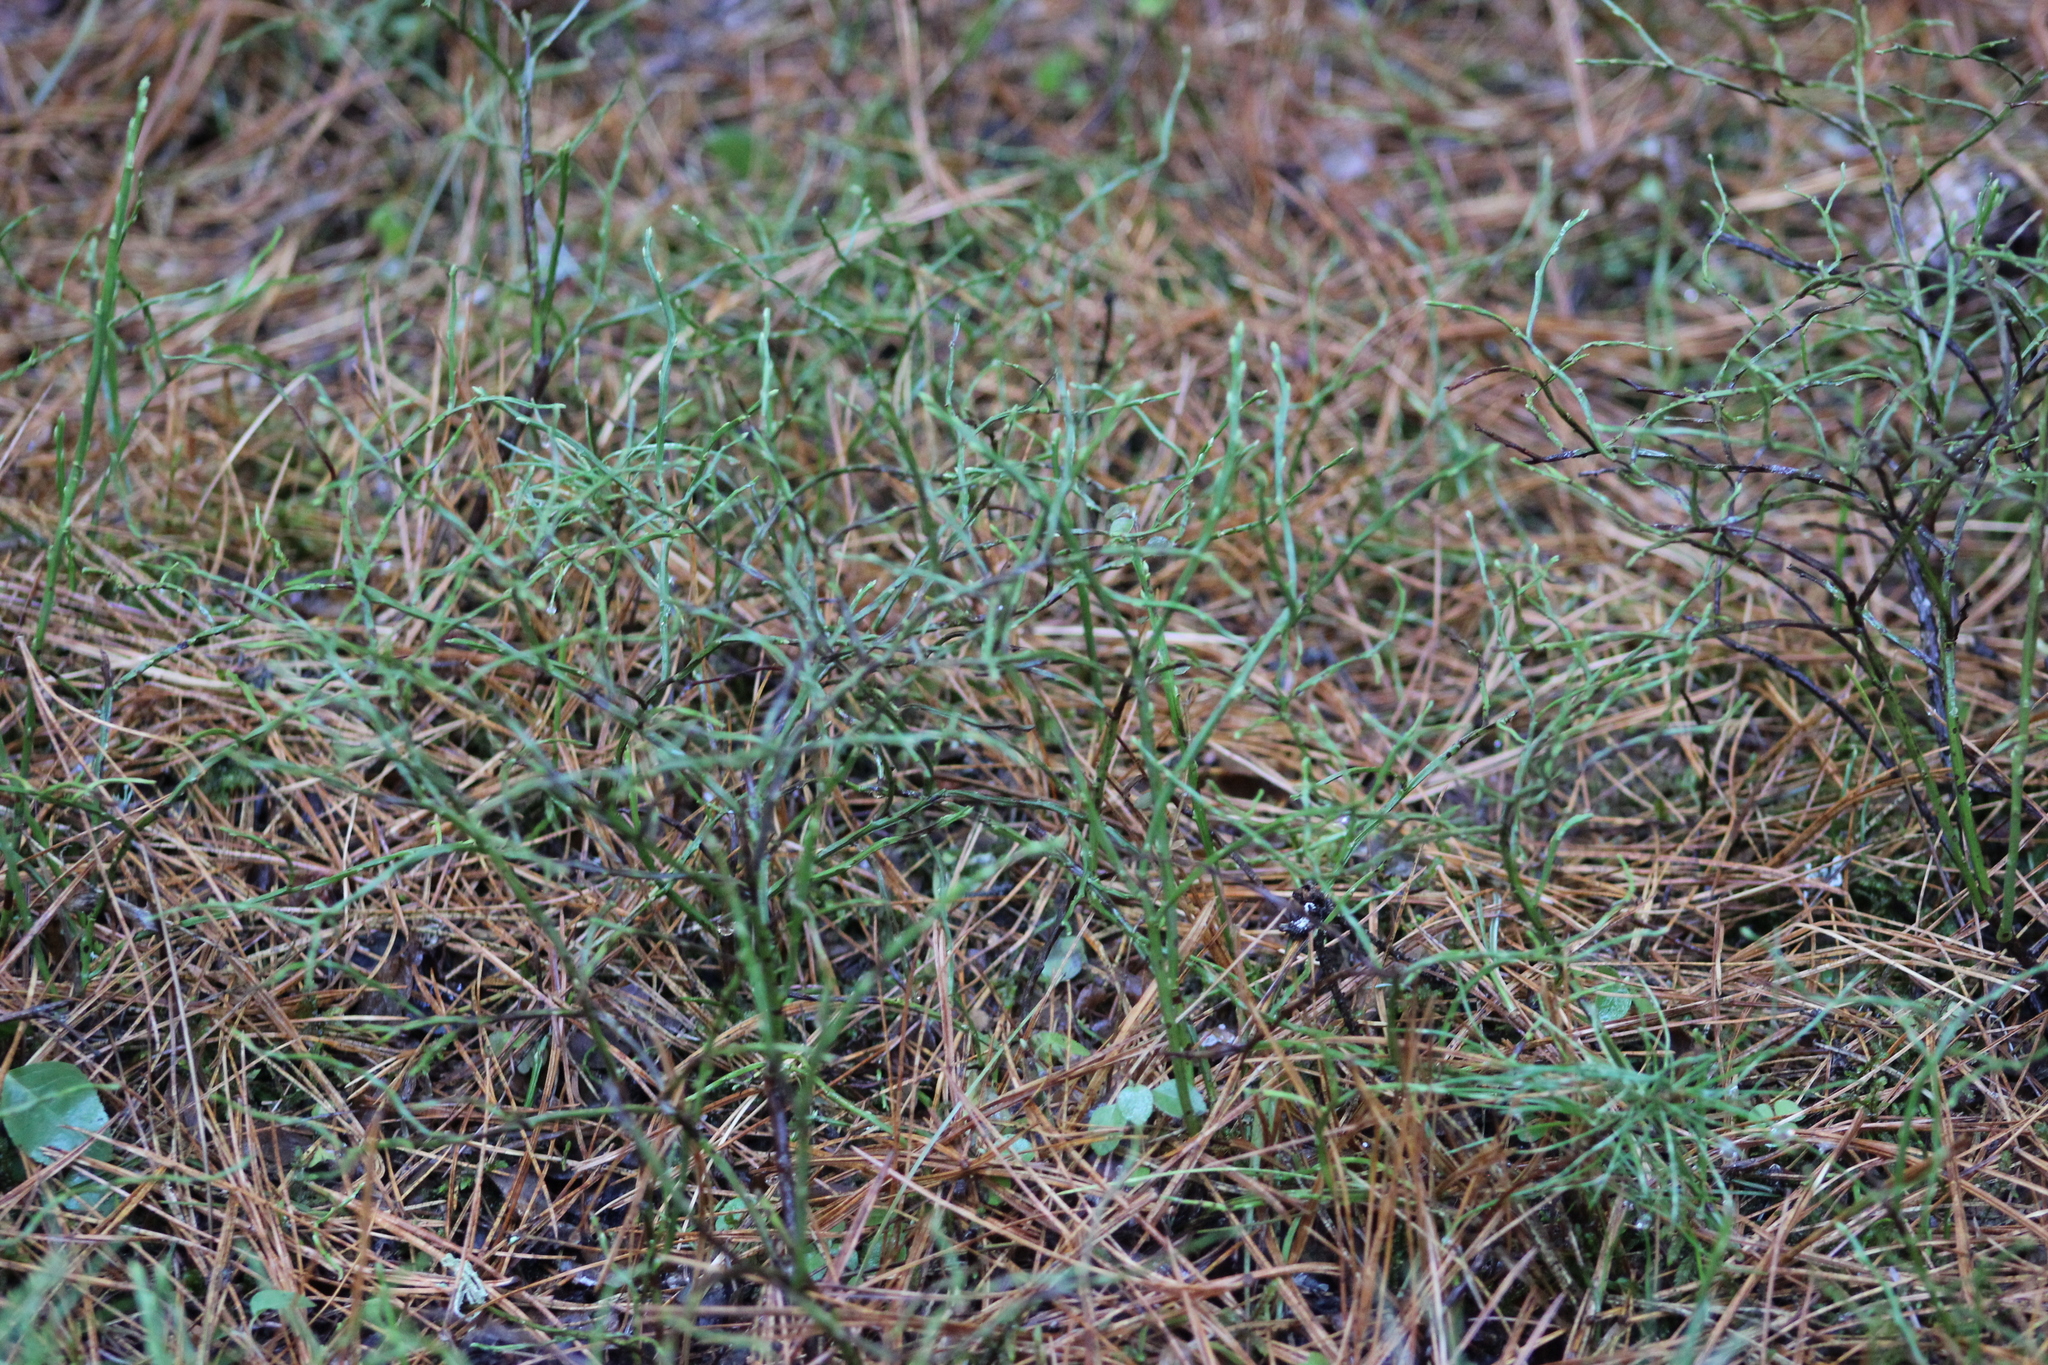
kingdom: Plantae
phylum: Tracheophyta
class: Magnoliopsida
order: Ericales
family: Ericaceae
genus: Vaccinium
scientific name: Vaccinium myrtillus
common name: Bilberry
